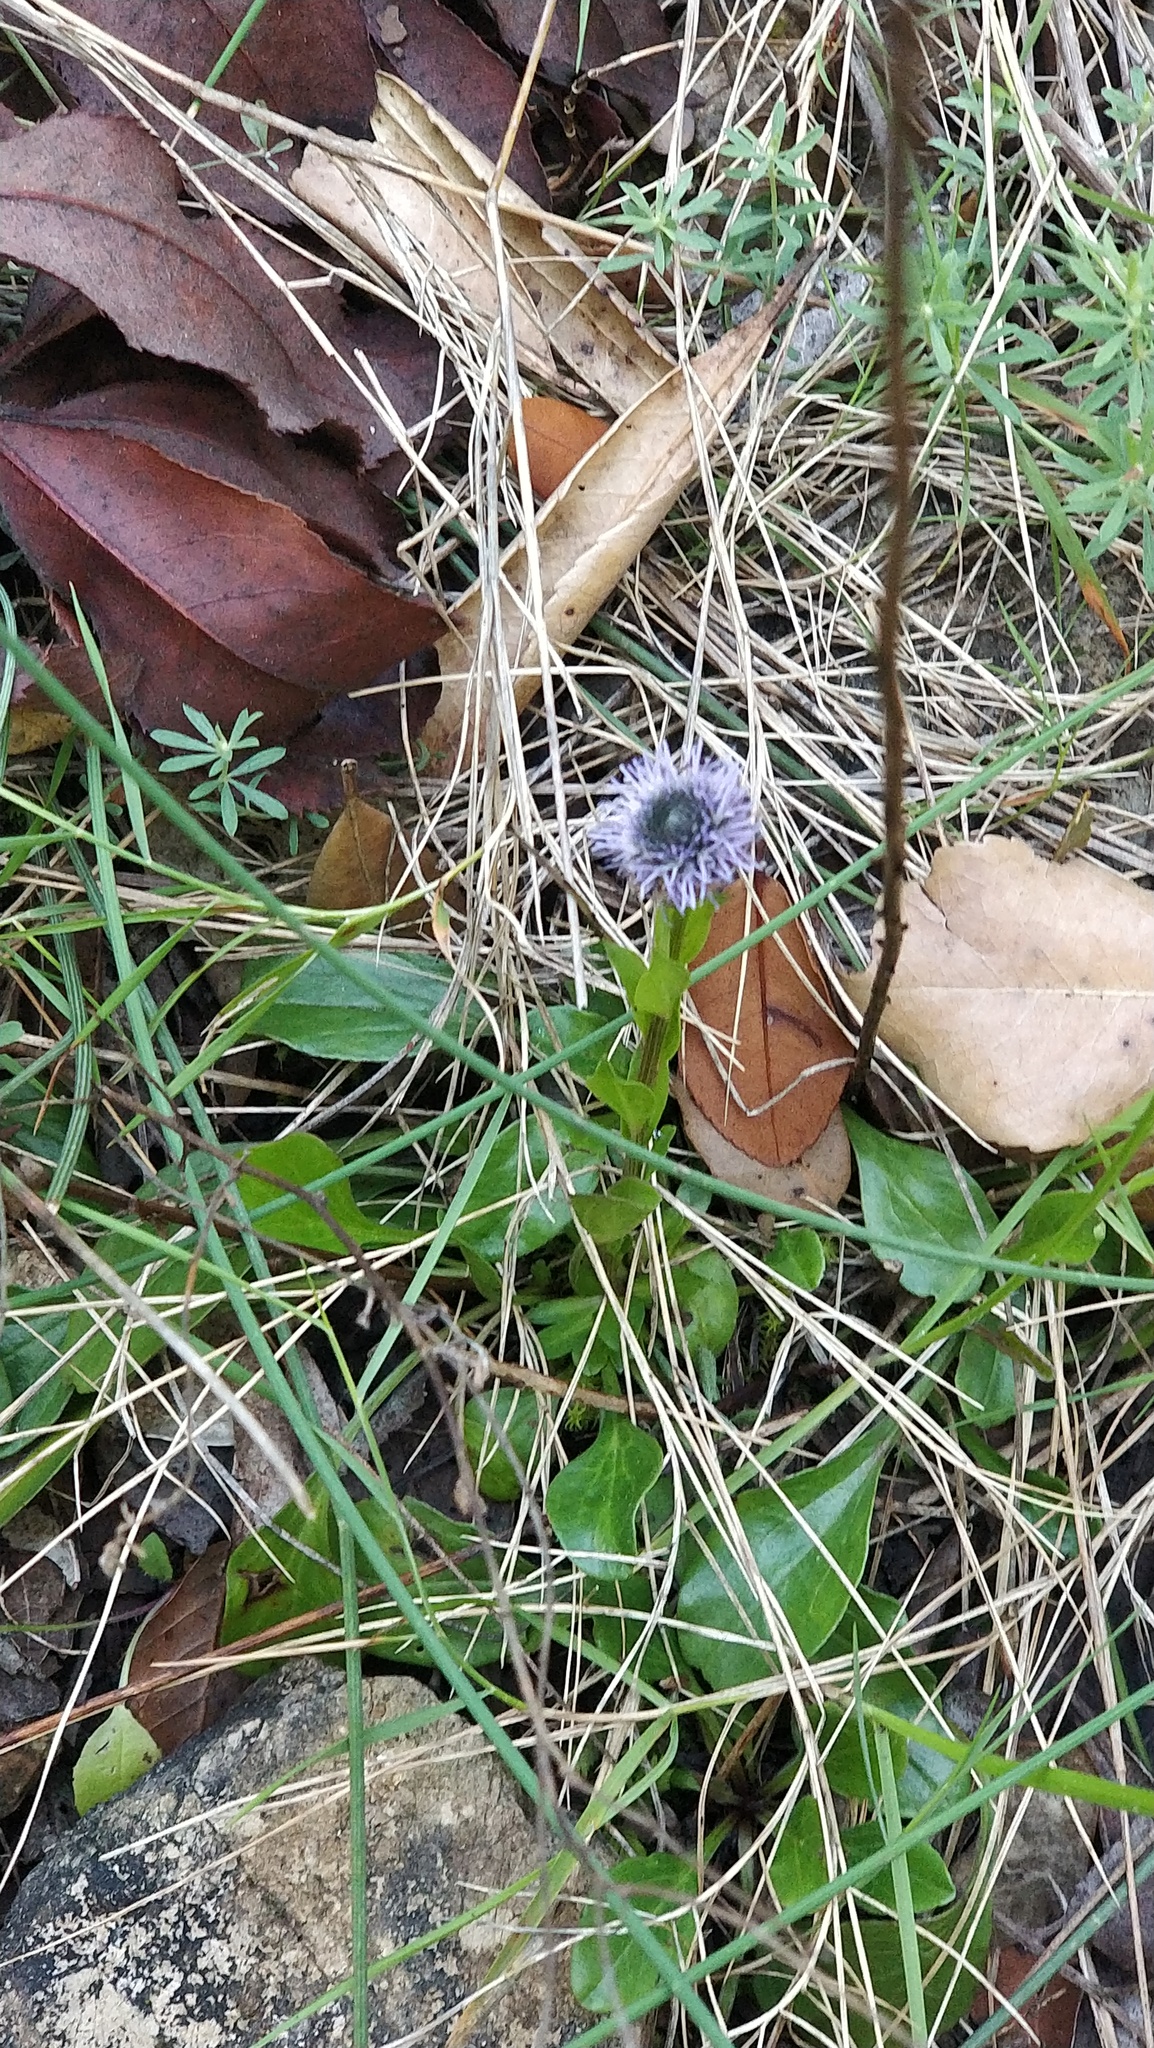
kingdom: Plantae
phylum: Tracheophyta
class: Magnoliopsida
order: Lamiales
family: Plantaginaceae
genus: Globularia
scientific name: Globularia bisnagarica
